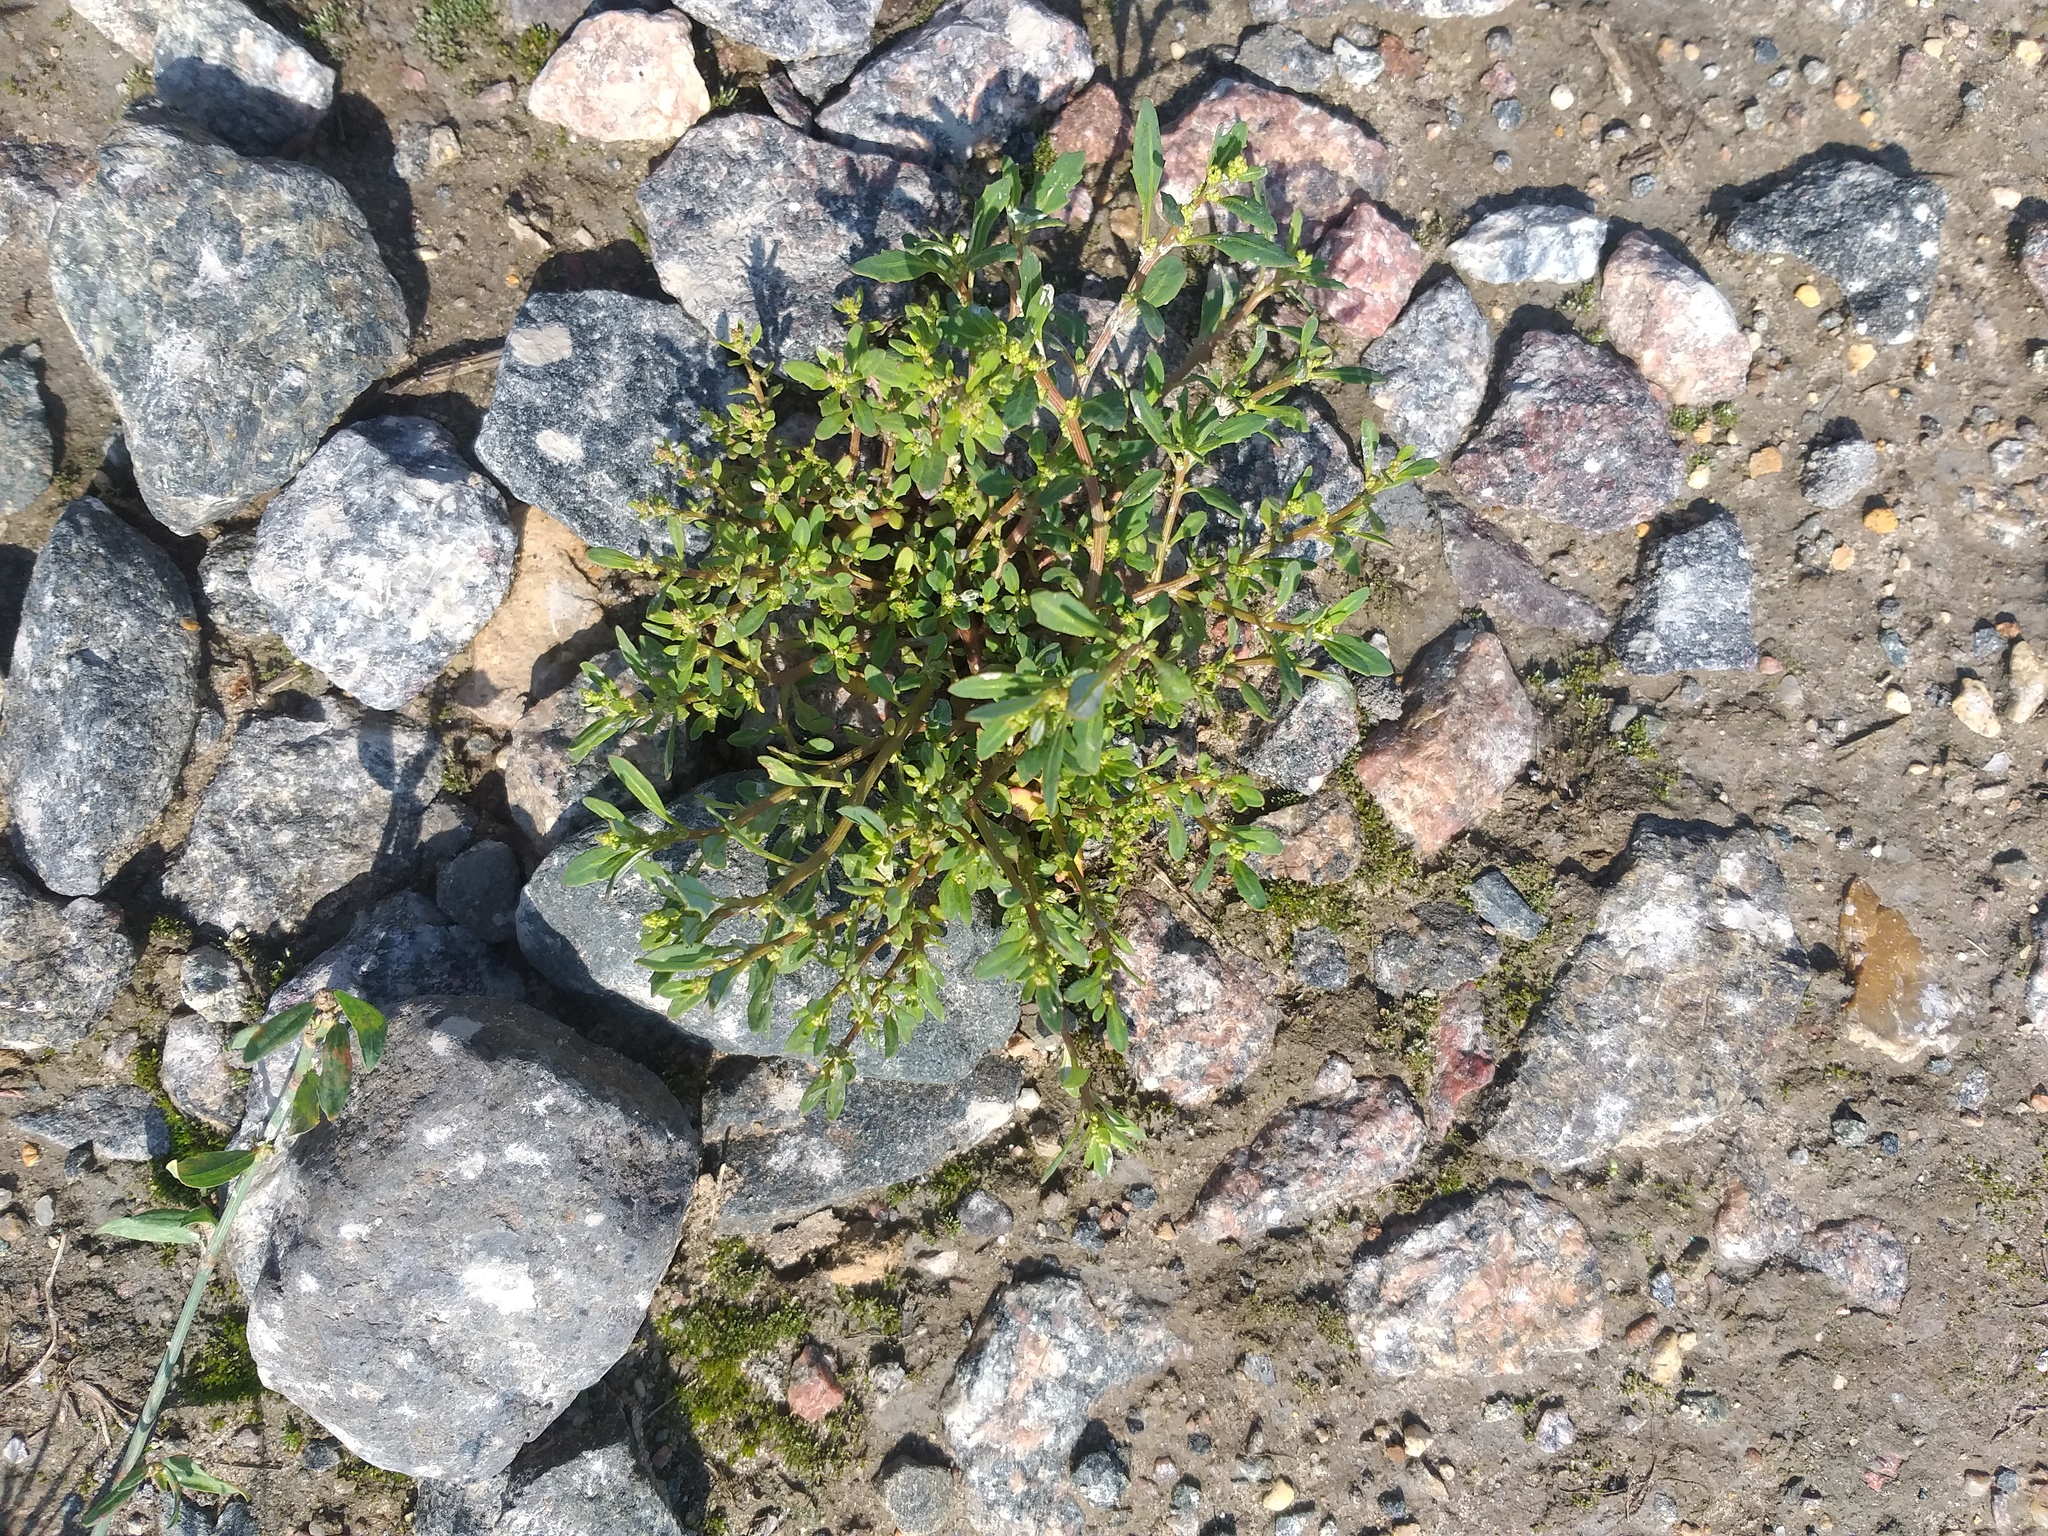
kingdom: Plantae
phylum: Tracheophyta
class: Magnoliopsida
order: Caryophyllales
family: Amaranthaceae
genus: Oxybasis
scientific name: Oxybasis glauca
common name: Glaucous goosefoot
